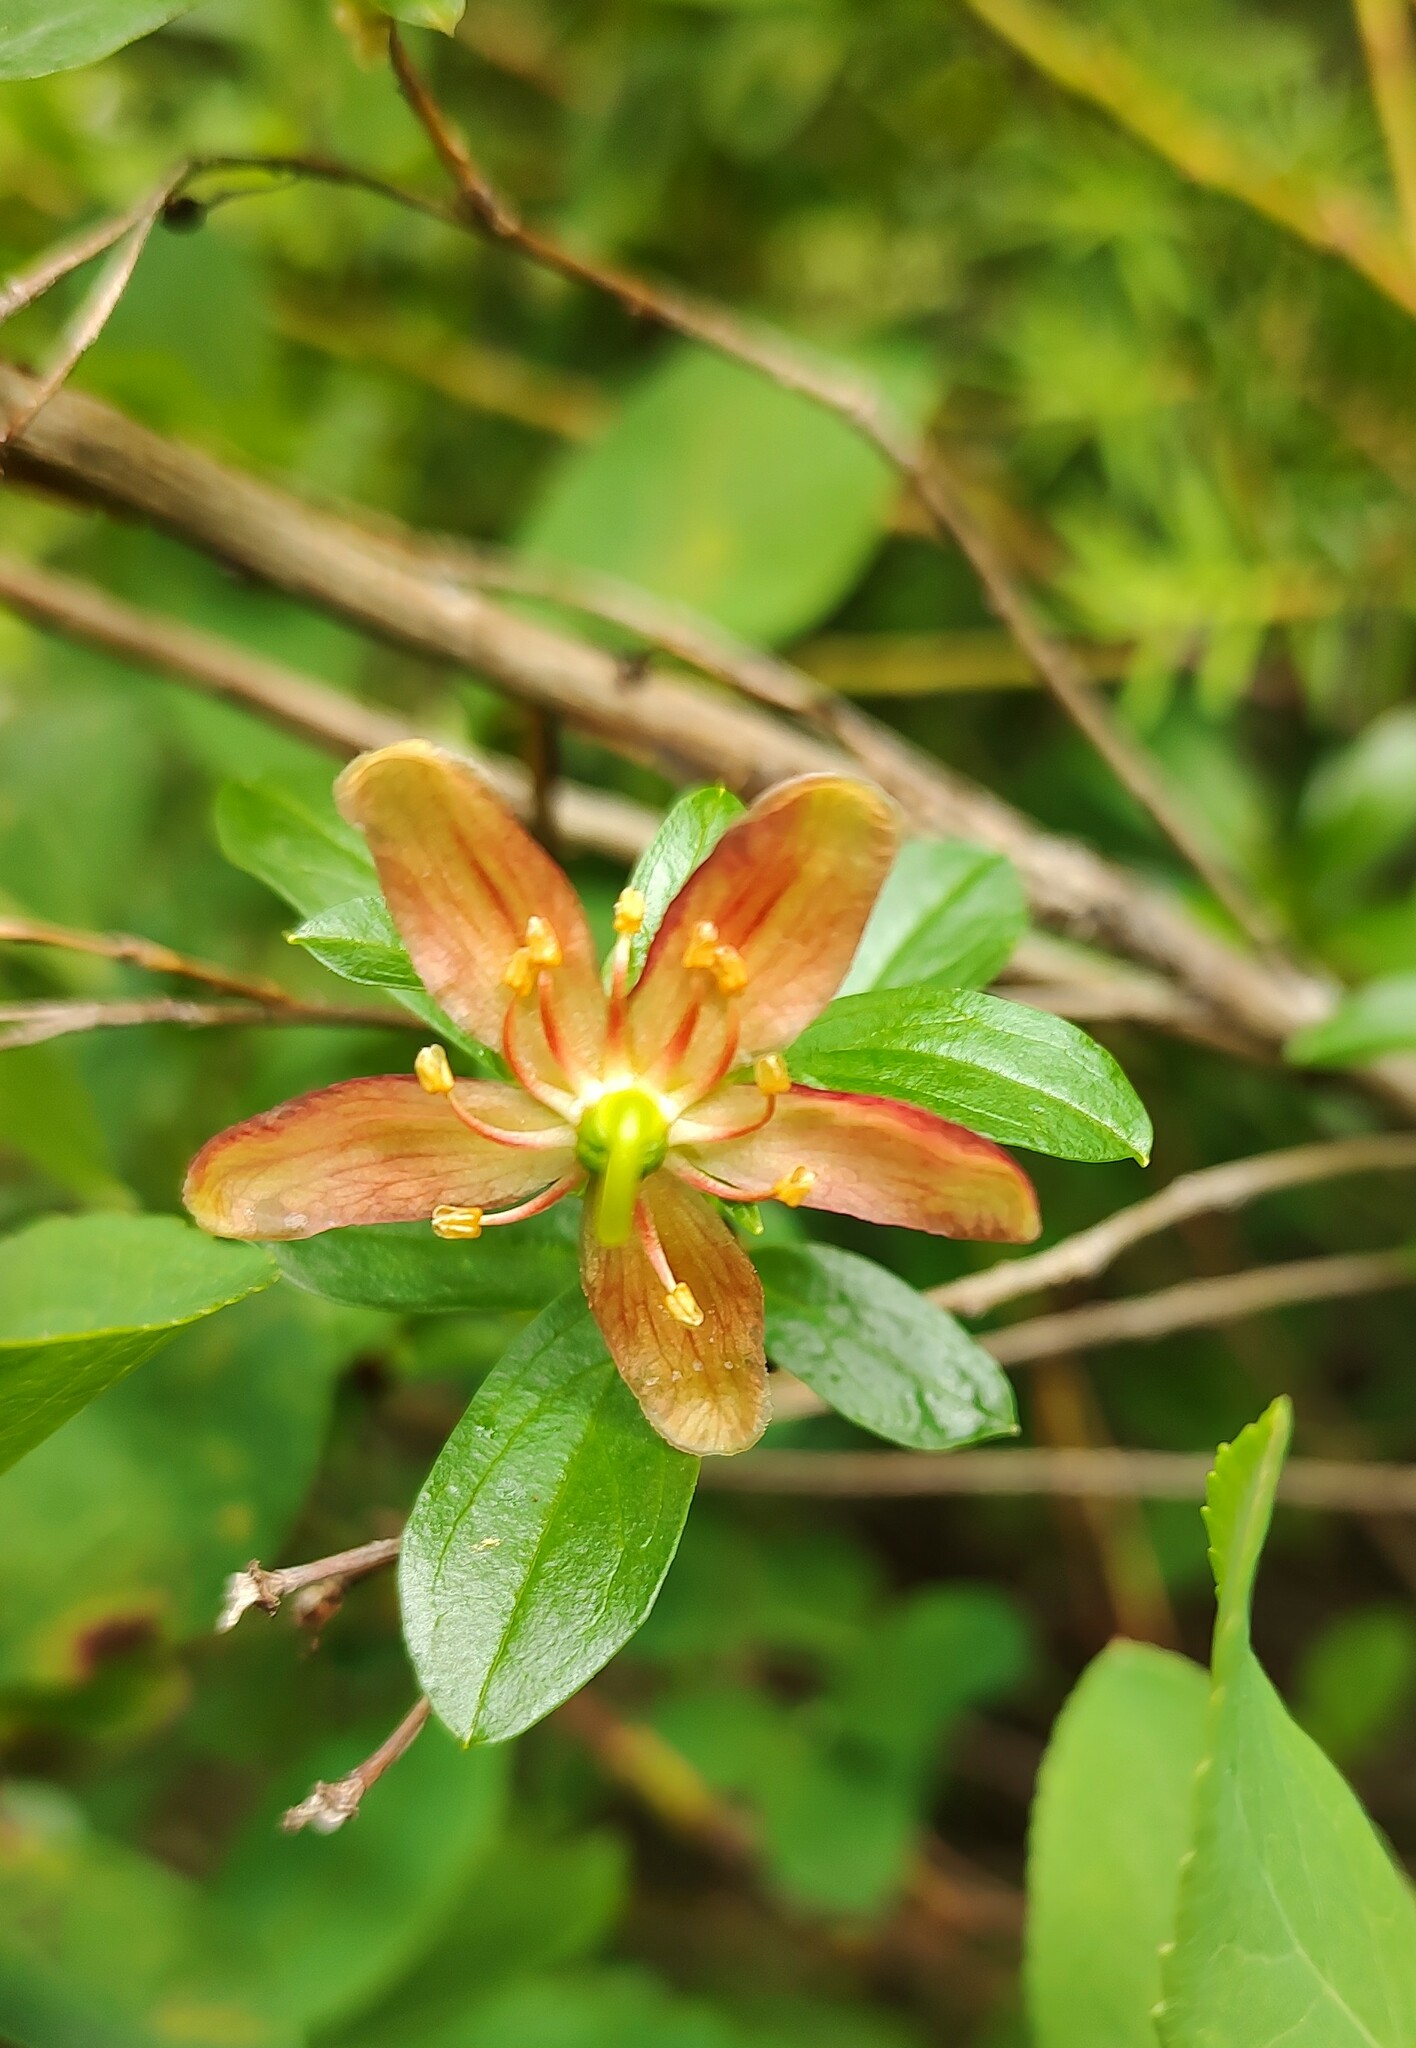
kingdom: Plantae
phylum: Tracheophyta
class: Magnoliopsida
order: Ericales
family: Ericaceae
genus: Elliottia
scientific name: Elliottia pyroliflora
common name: Copperbush
